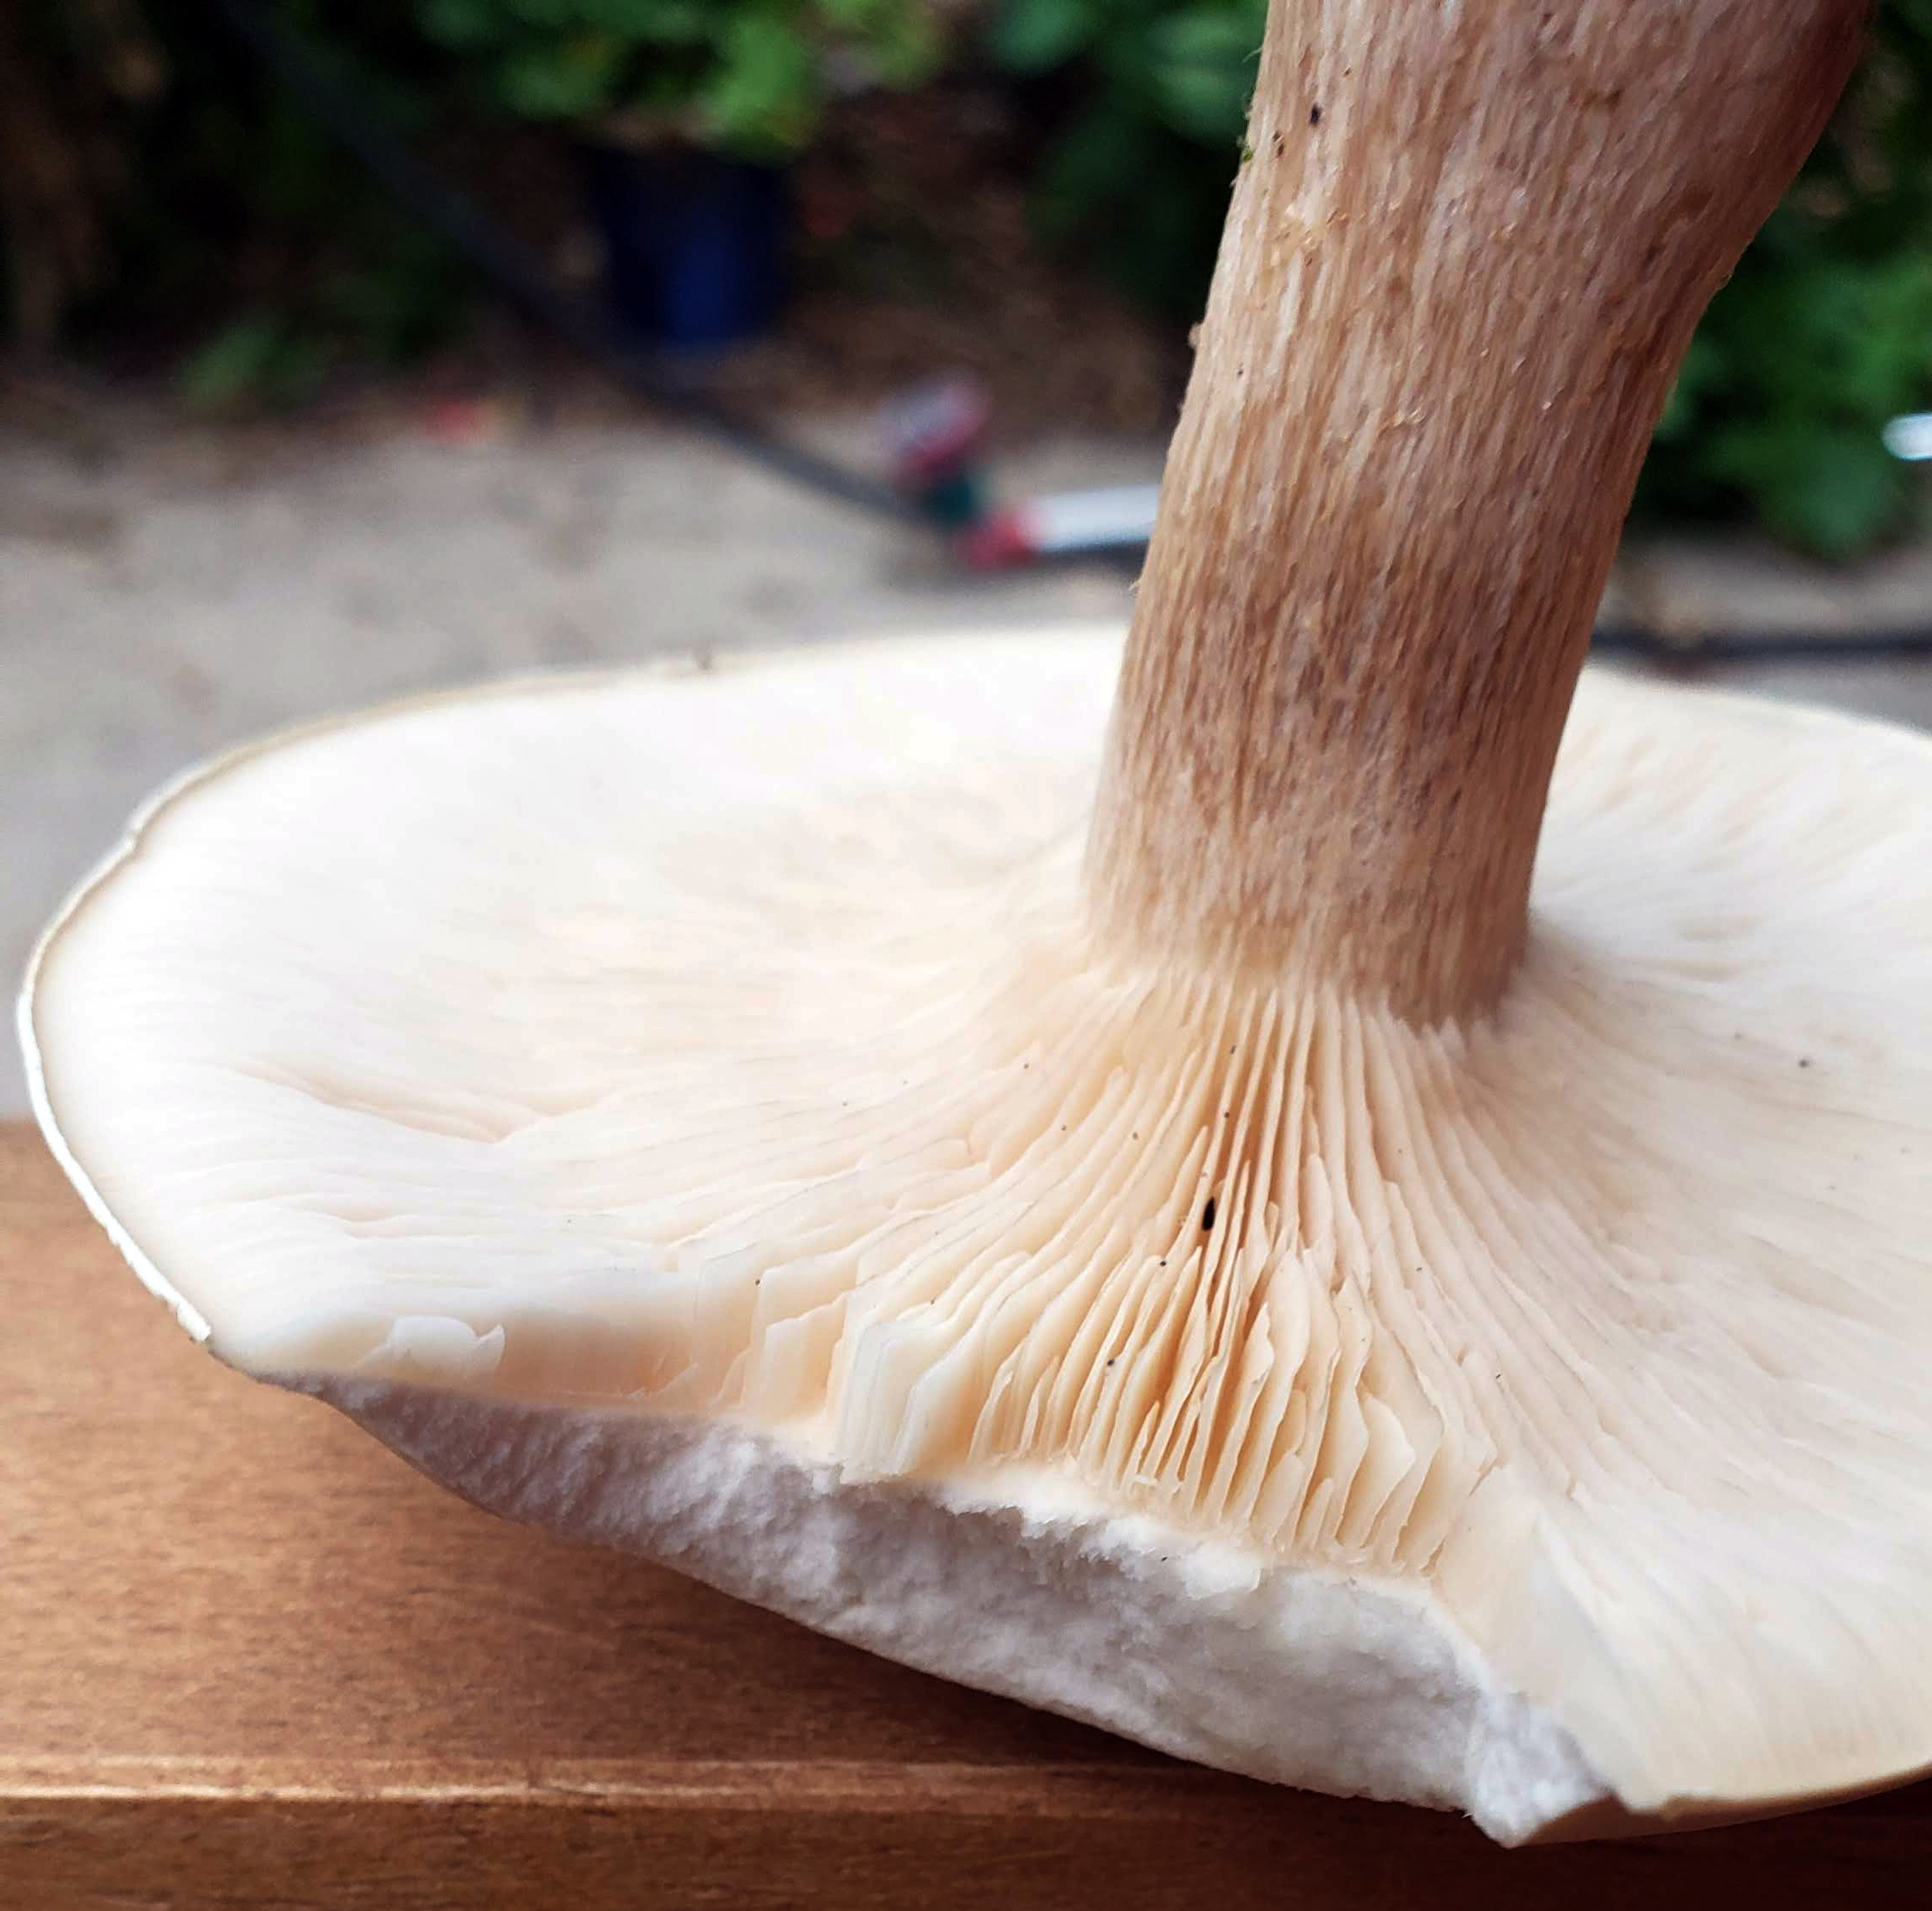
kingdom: Fungi
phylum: Basidiomycota
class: Agaricomycetes
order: Agaricales
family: Tricholomataceae
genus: Leucopaxillus
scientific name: Leucopaxillus albissimus
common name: Large white leucopax
